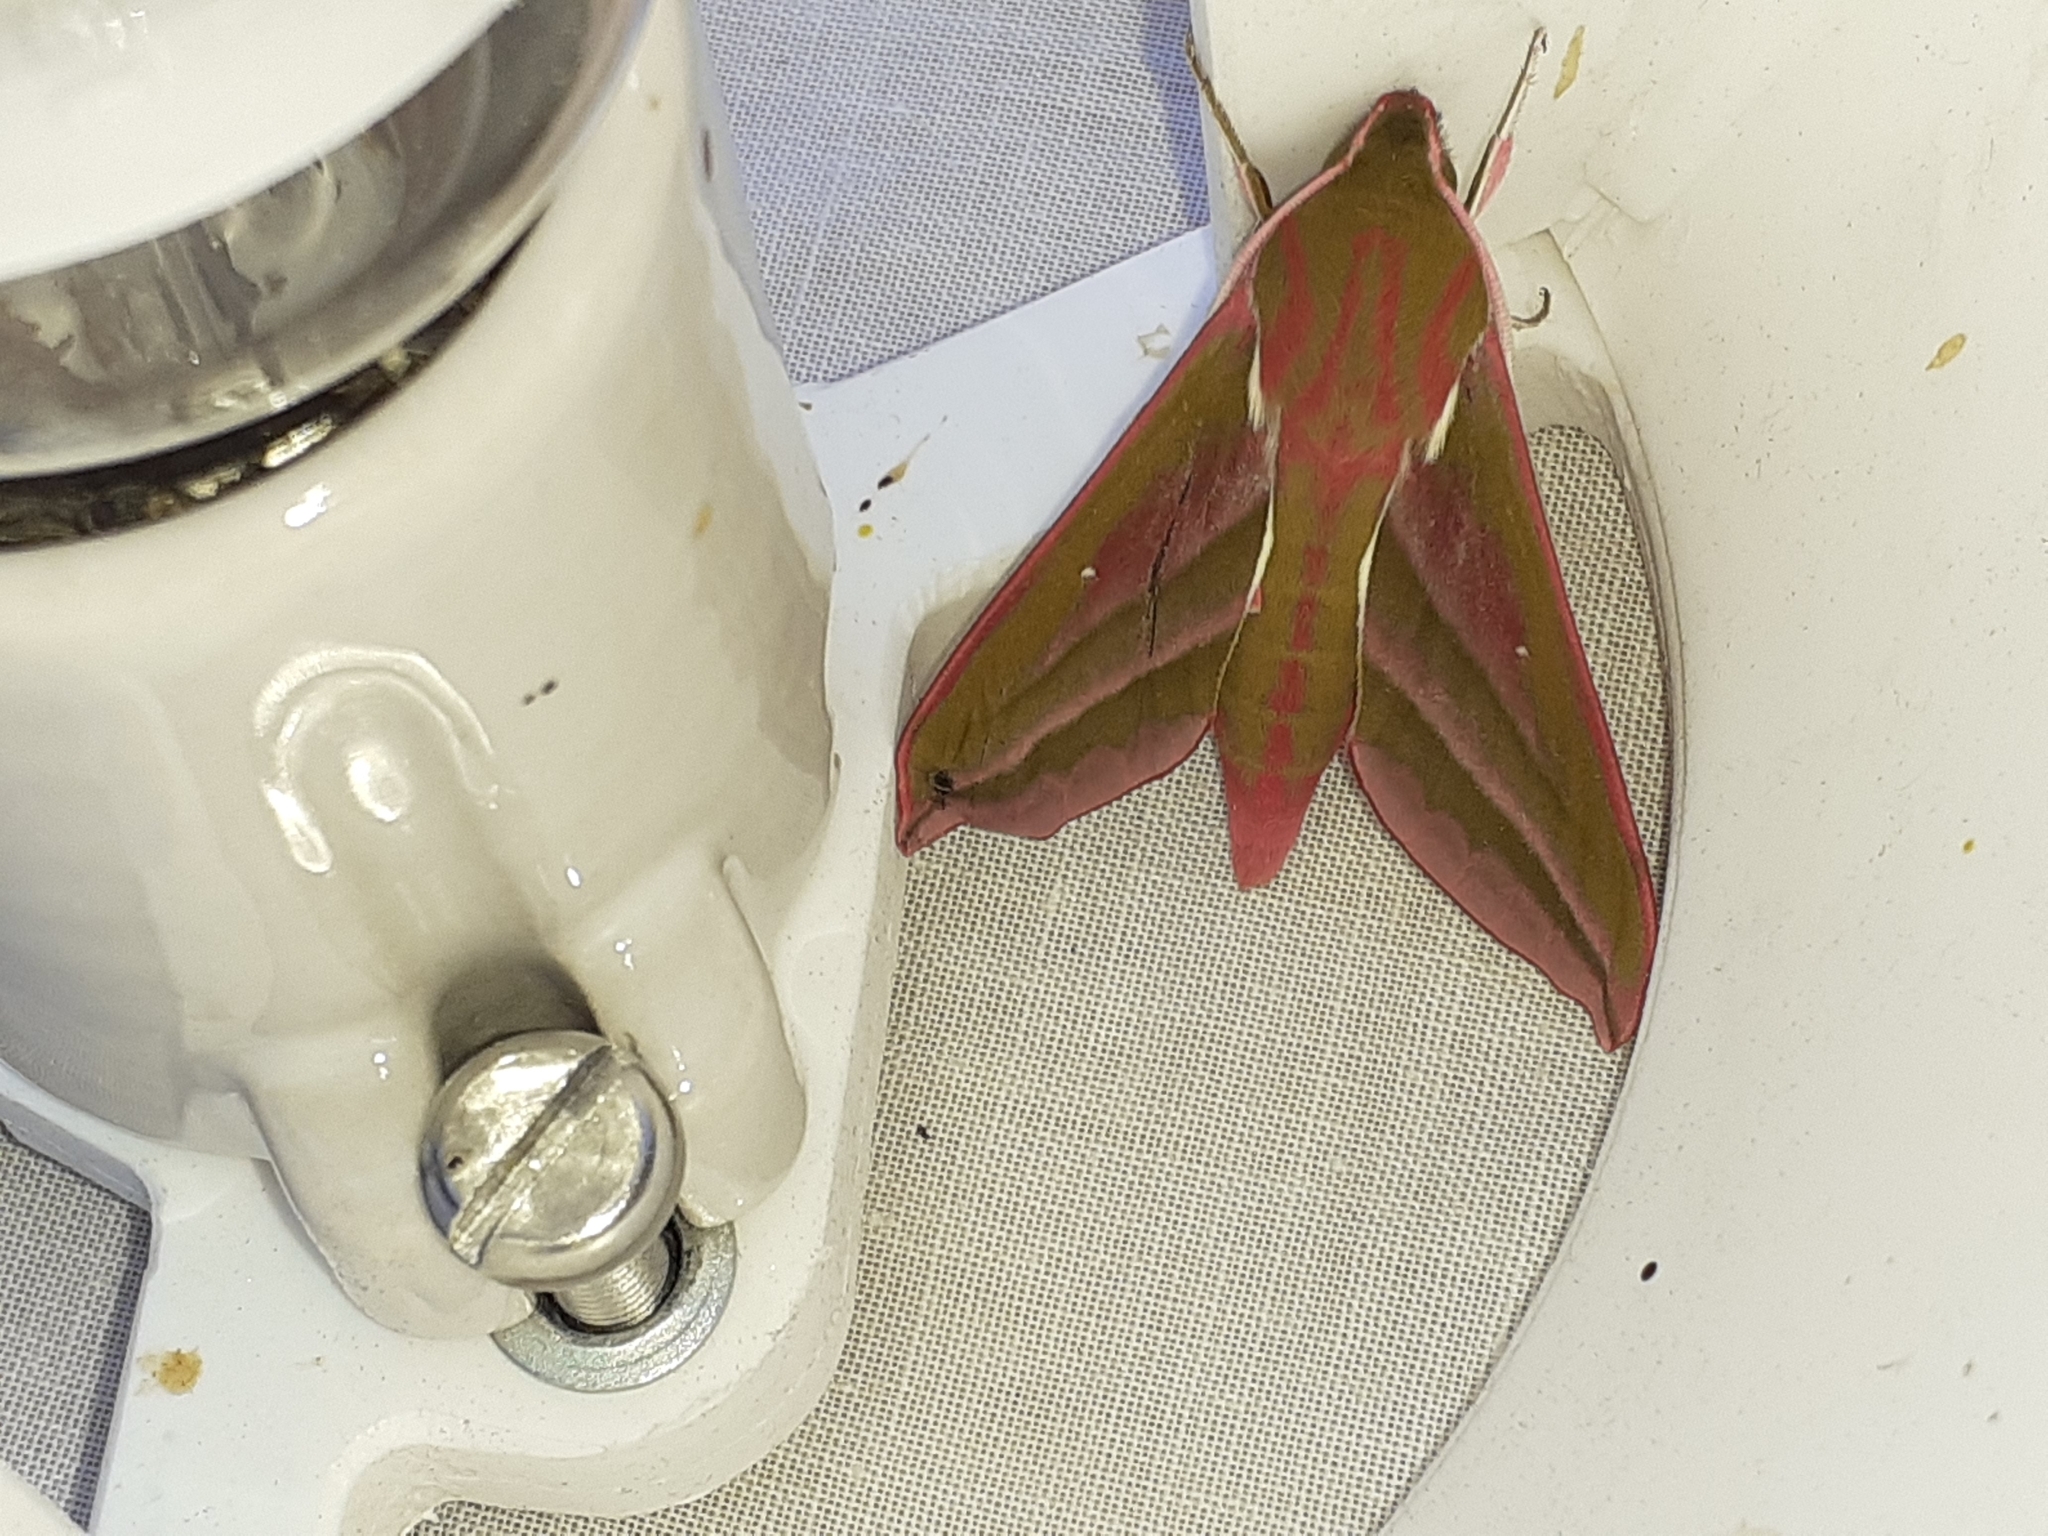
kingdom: Animalia
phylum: Arthropoda
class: Insecta
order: Lepidoptera
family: Sphingidae
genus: Deilephila
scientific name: Deilephila elpenor
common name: Elephant hawk-moth
